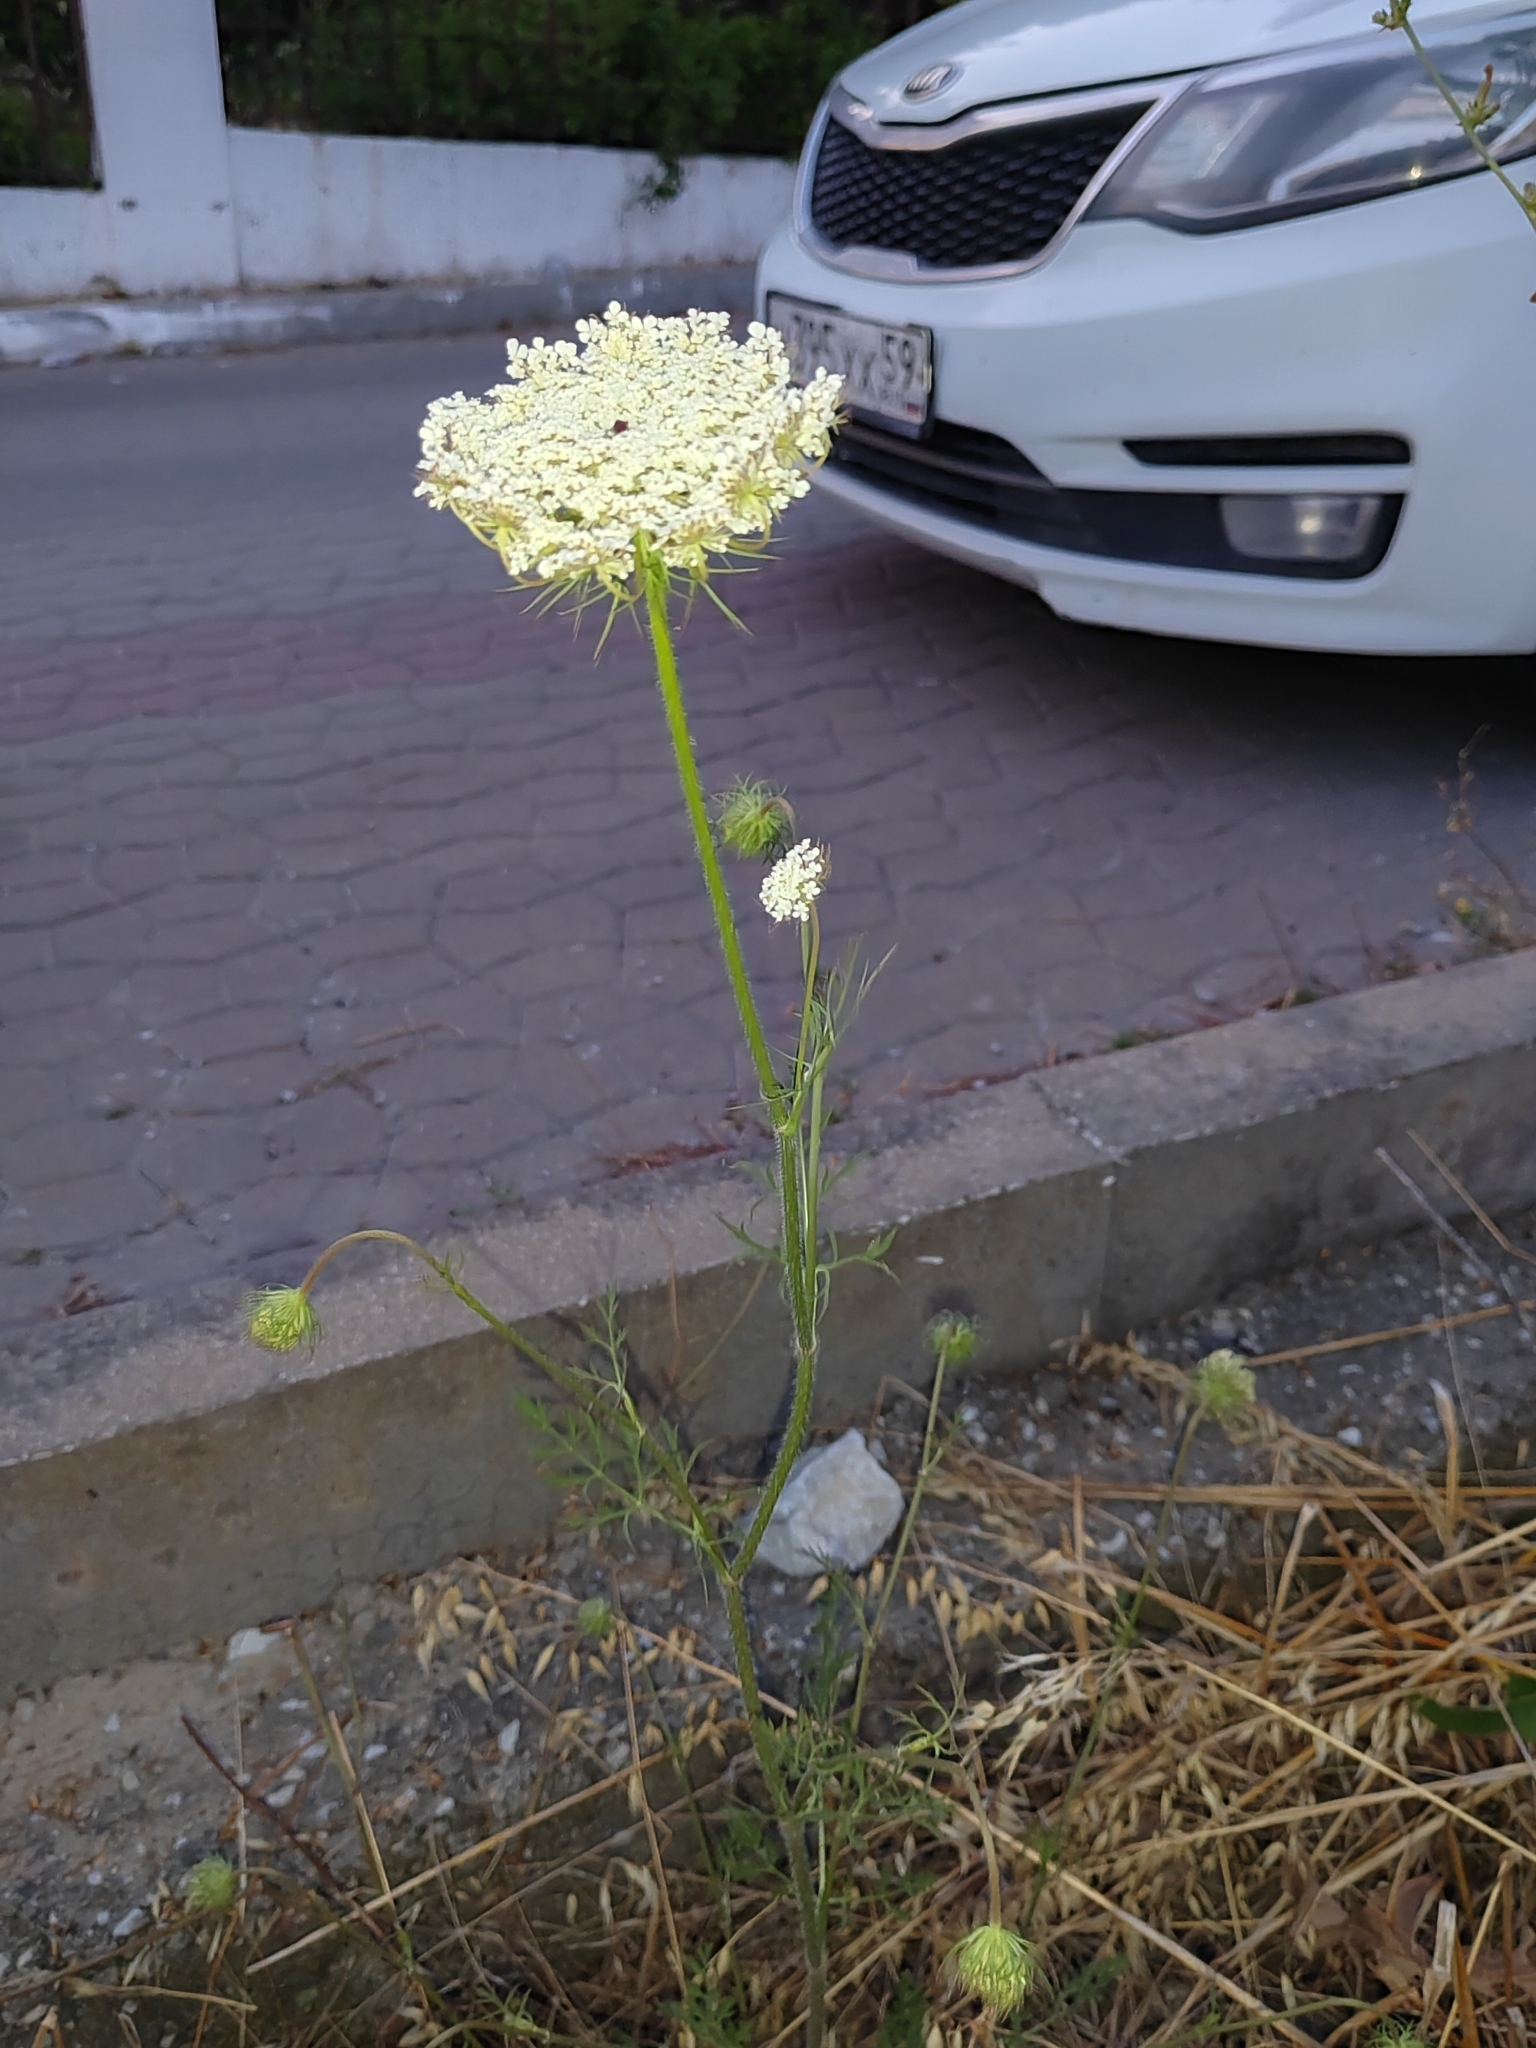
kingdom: Plantae
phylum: Tracheophyta
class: Magnoliopsida
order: Apiales
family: Apiaceae
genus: Daucus
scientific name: Daucus carota
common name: Wild carrot
